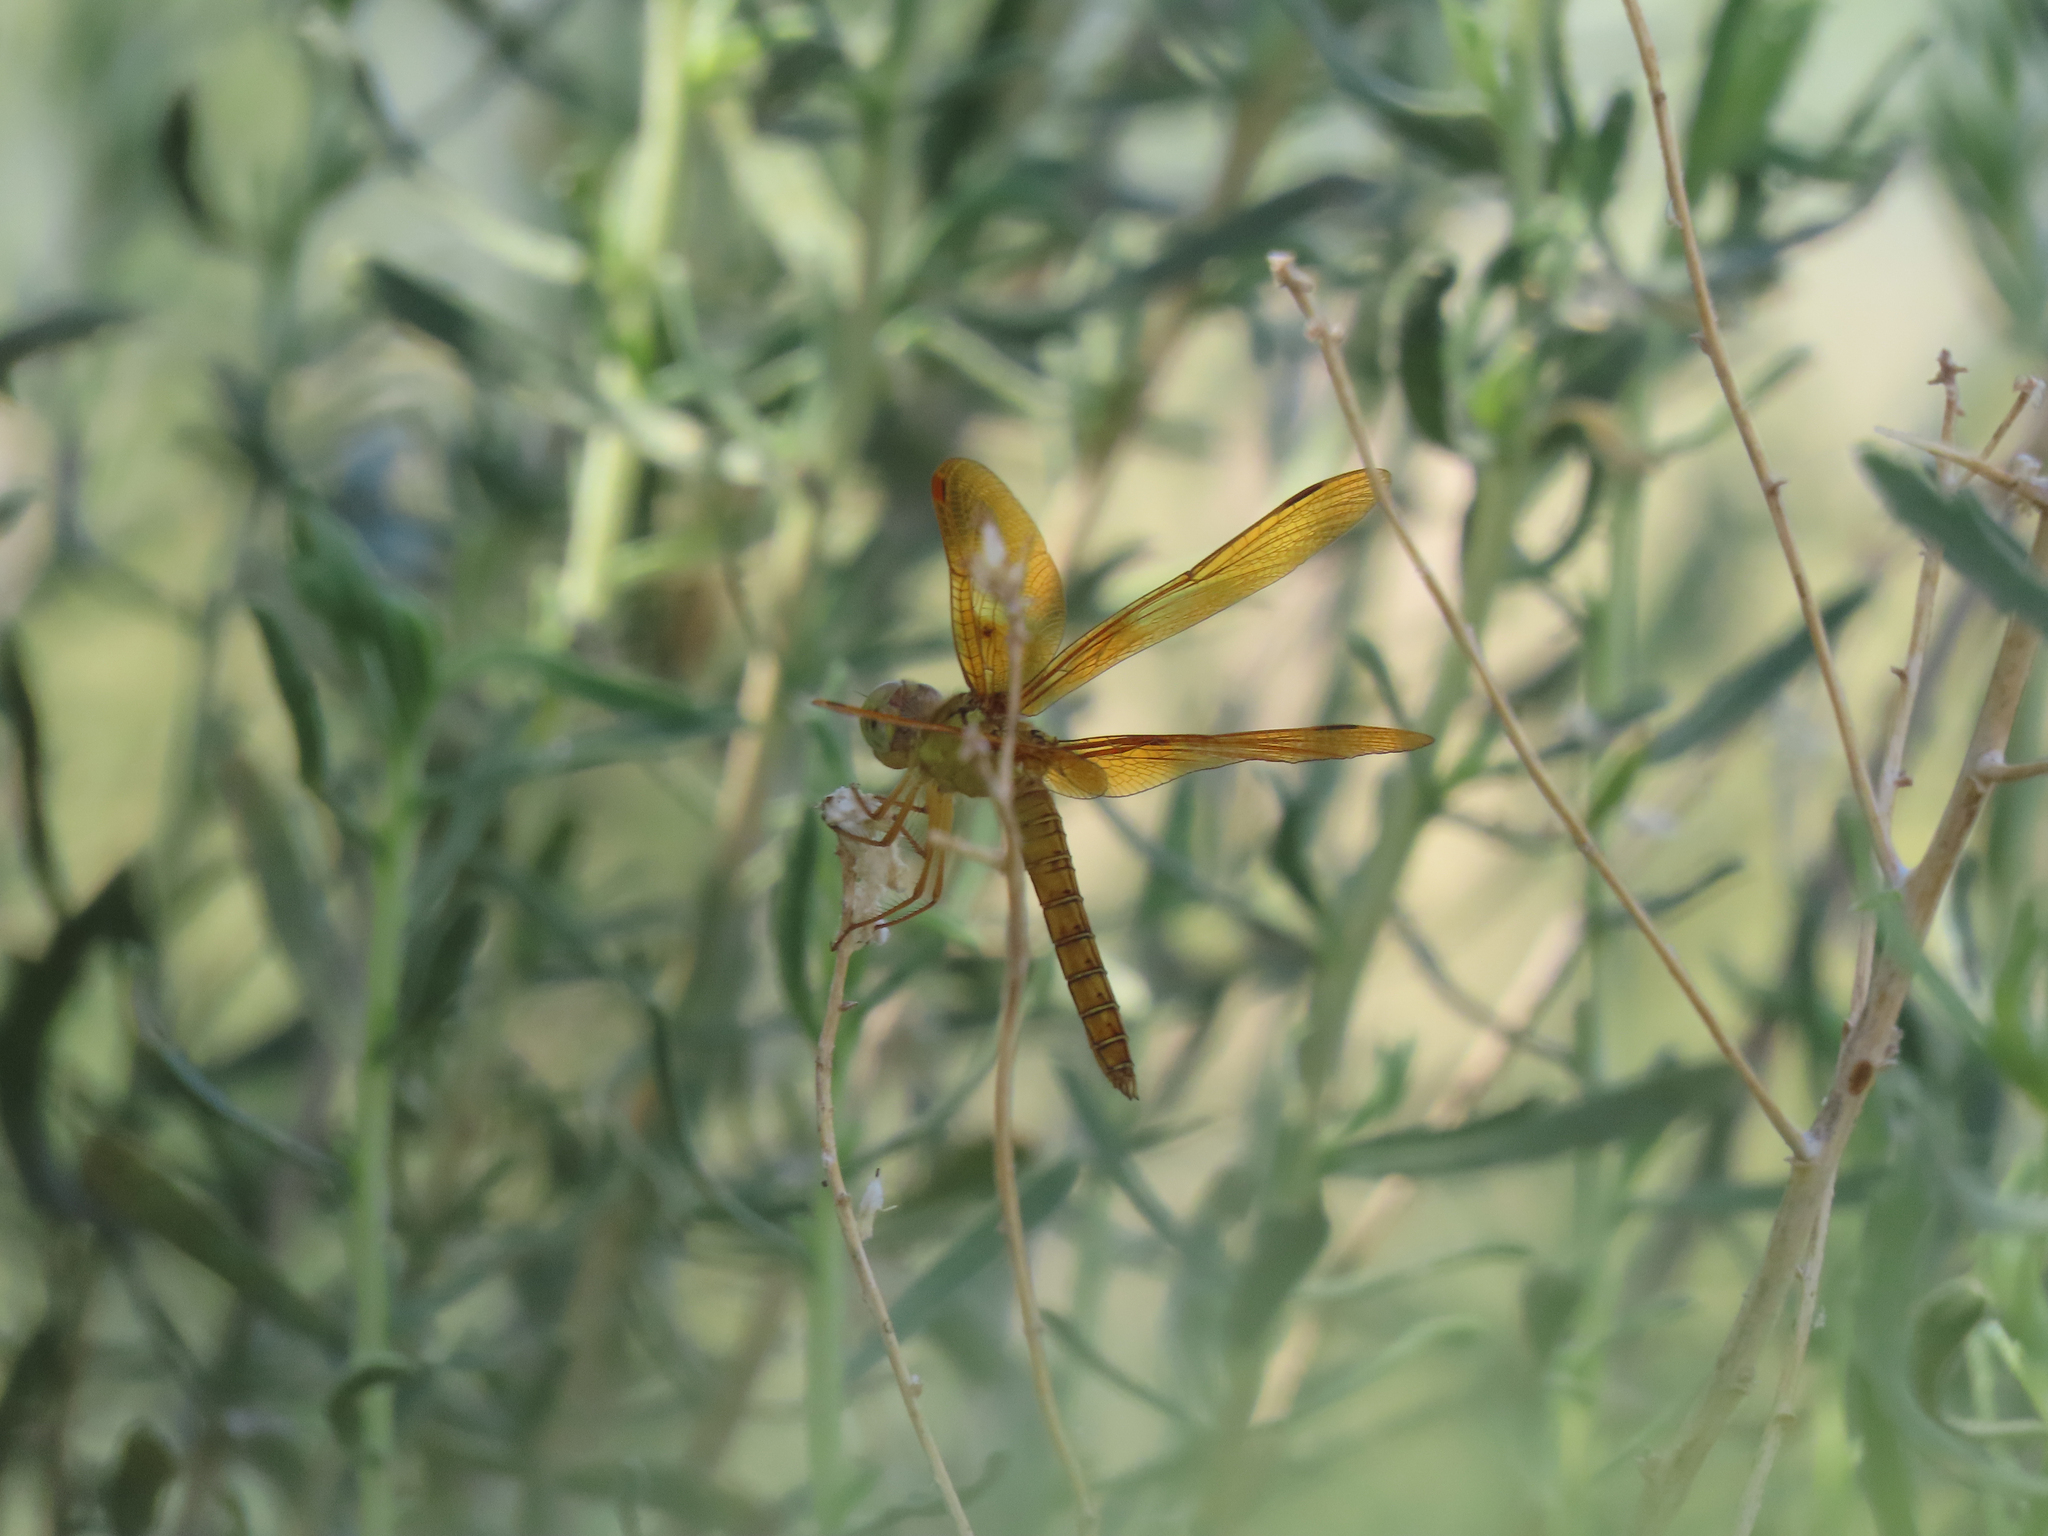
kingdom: Animalia
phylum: Arthropoda
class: Insecta
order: Odonata
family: Libellulidae
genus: Perithemis
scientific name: Perithemis intensa
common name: Mexican amberwing
